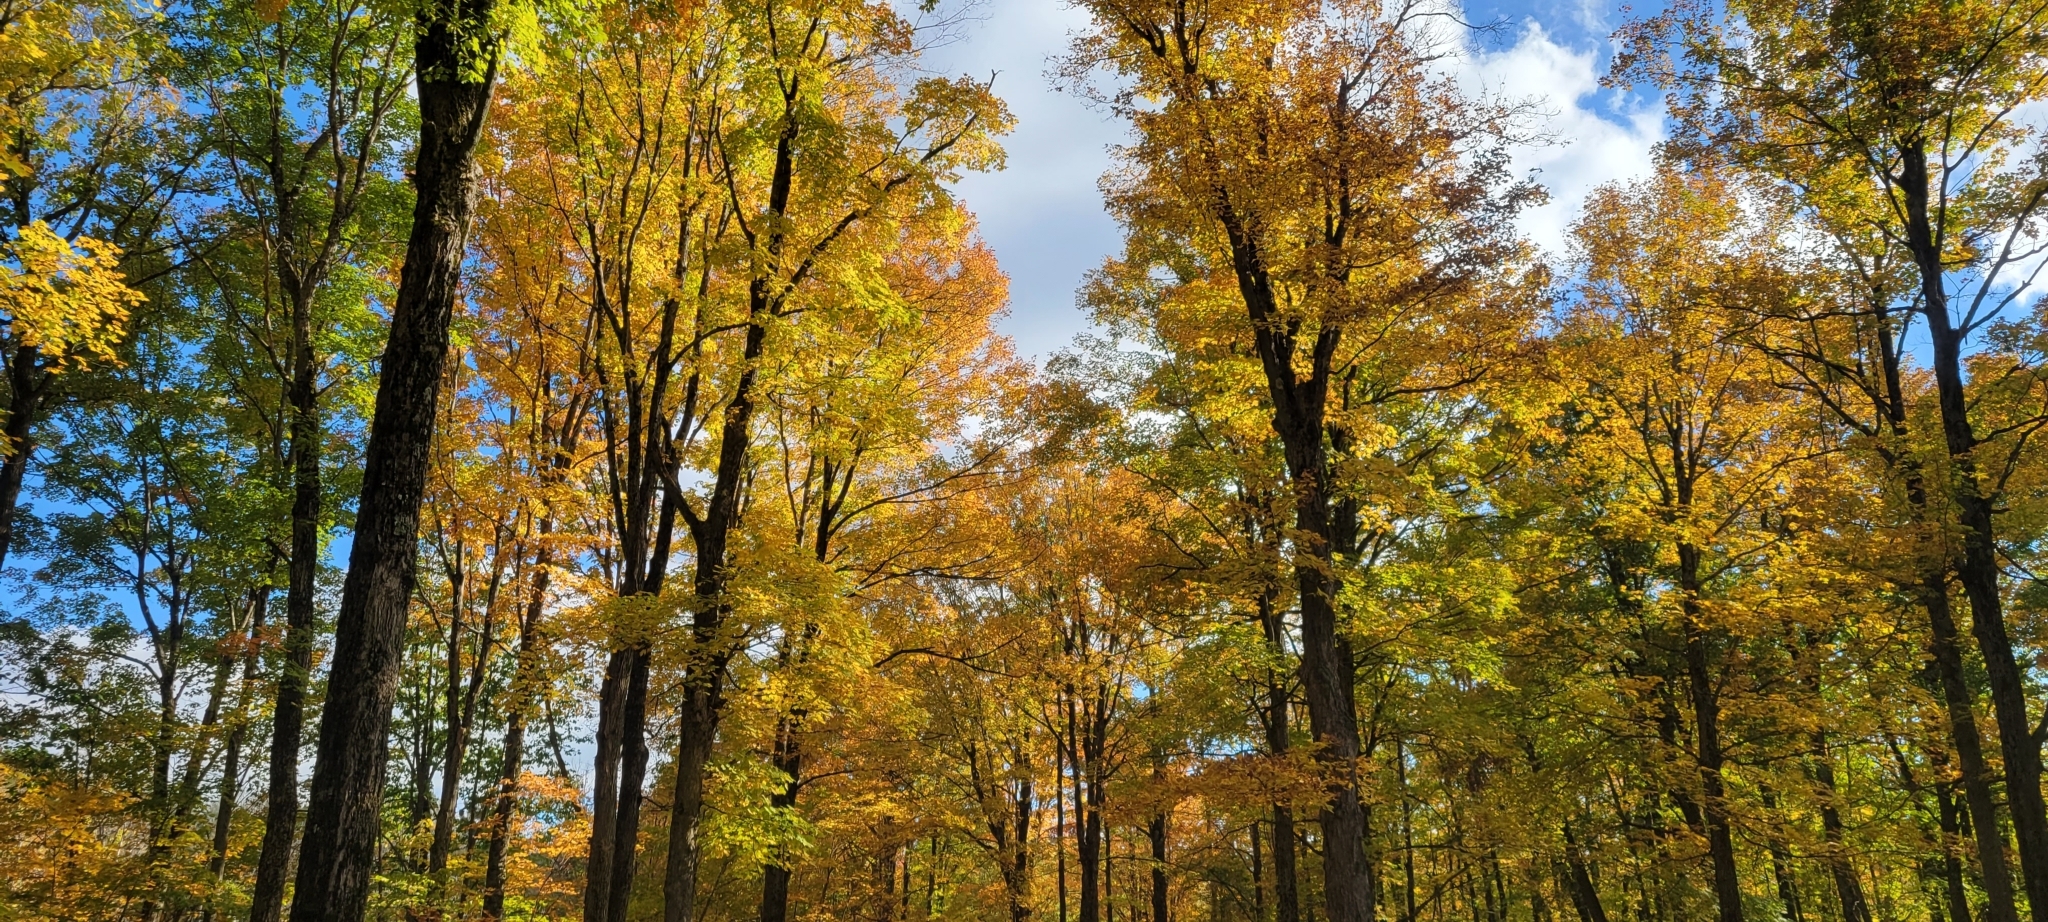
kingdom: Plantae
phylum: Tracheophyta
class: Magnoliopsida
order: Sapindales
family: Sapindaceae
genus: Acer
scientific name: Acer saccharum
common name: Sugar maple
